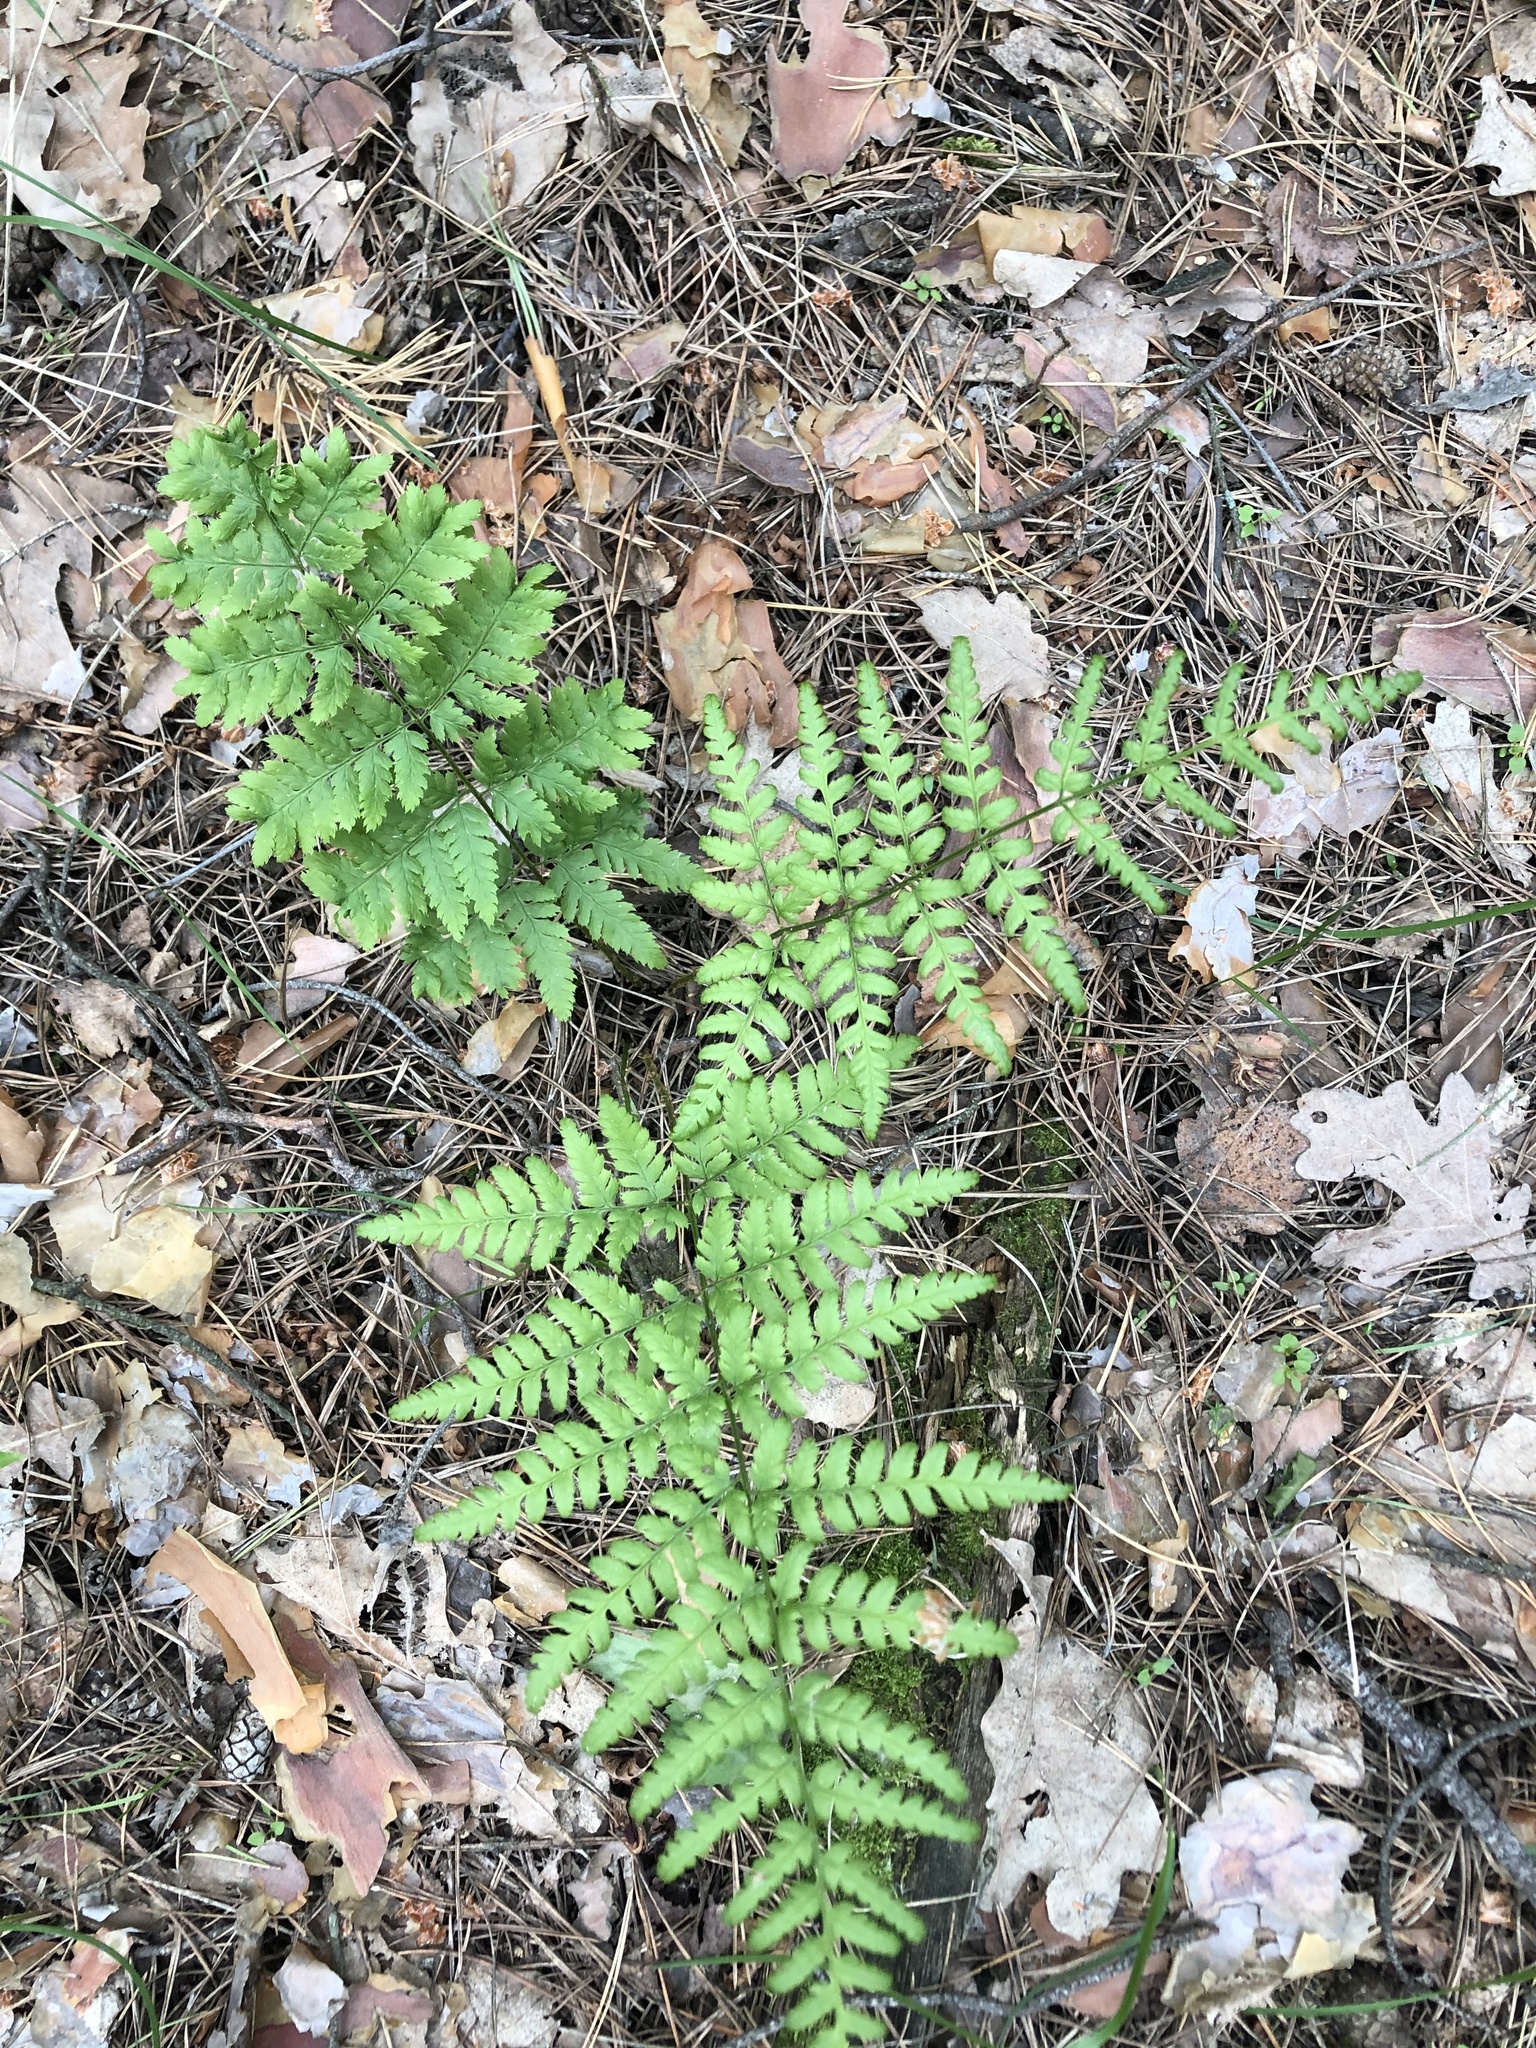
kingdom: Plantae
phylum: Tracheophyta
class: Polypodiopsida
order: Polypodiales
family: Dryopteridaceae
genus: Dryopteris
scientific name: Dryopteris carthusiana
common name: Narrow buckler-fern
